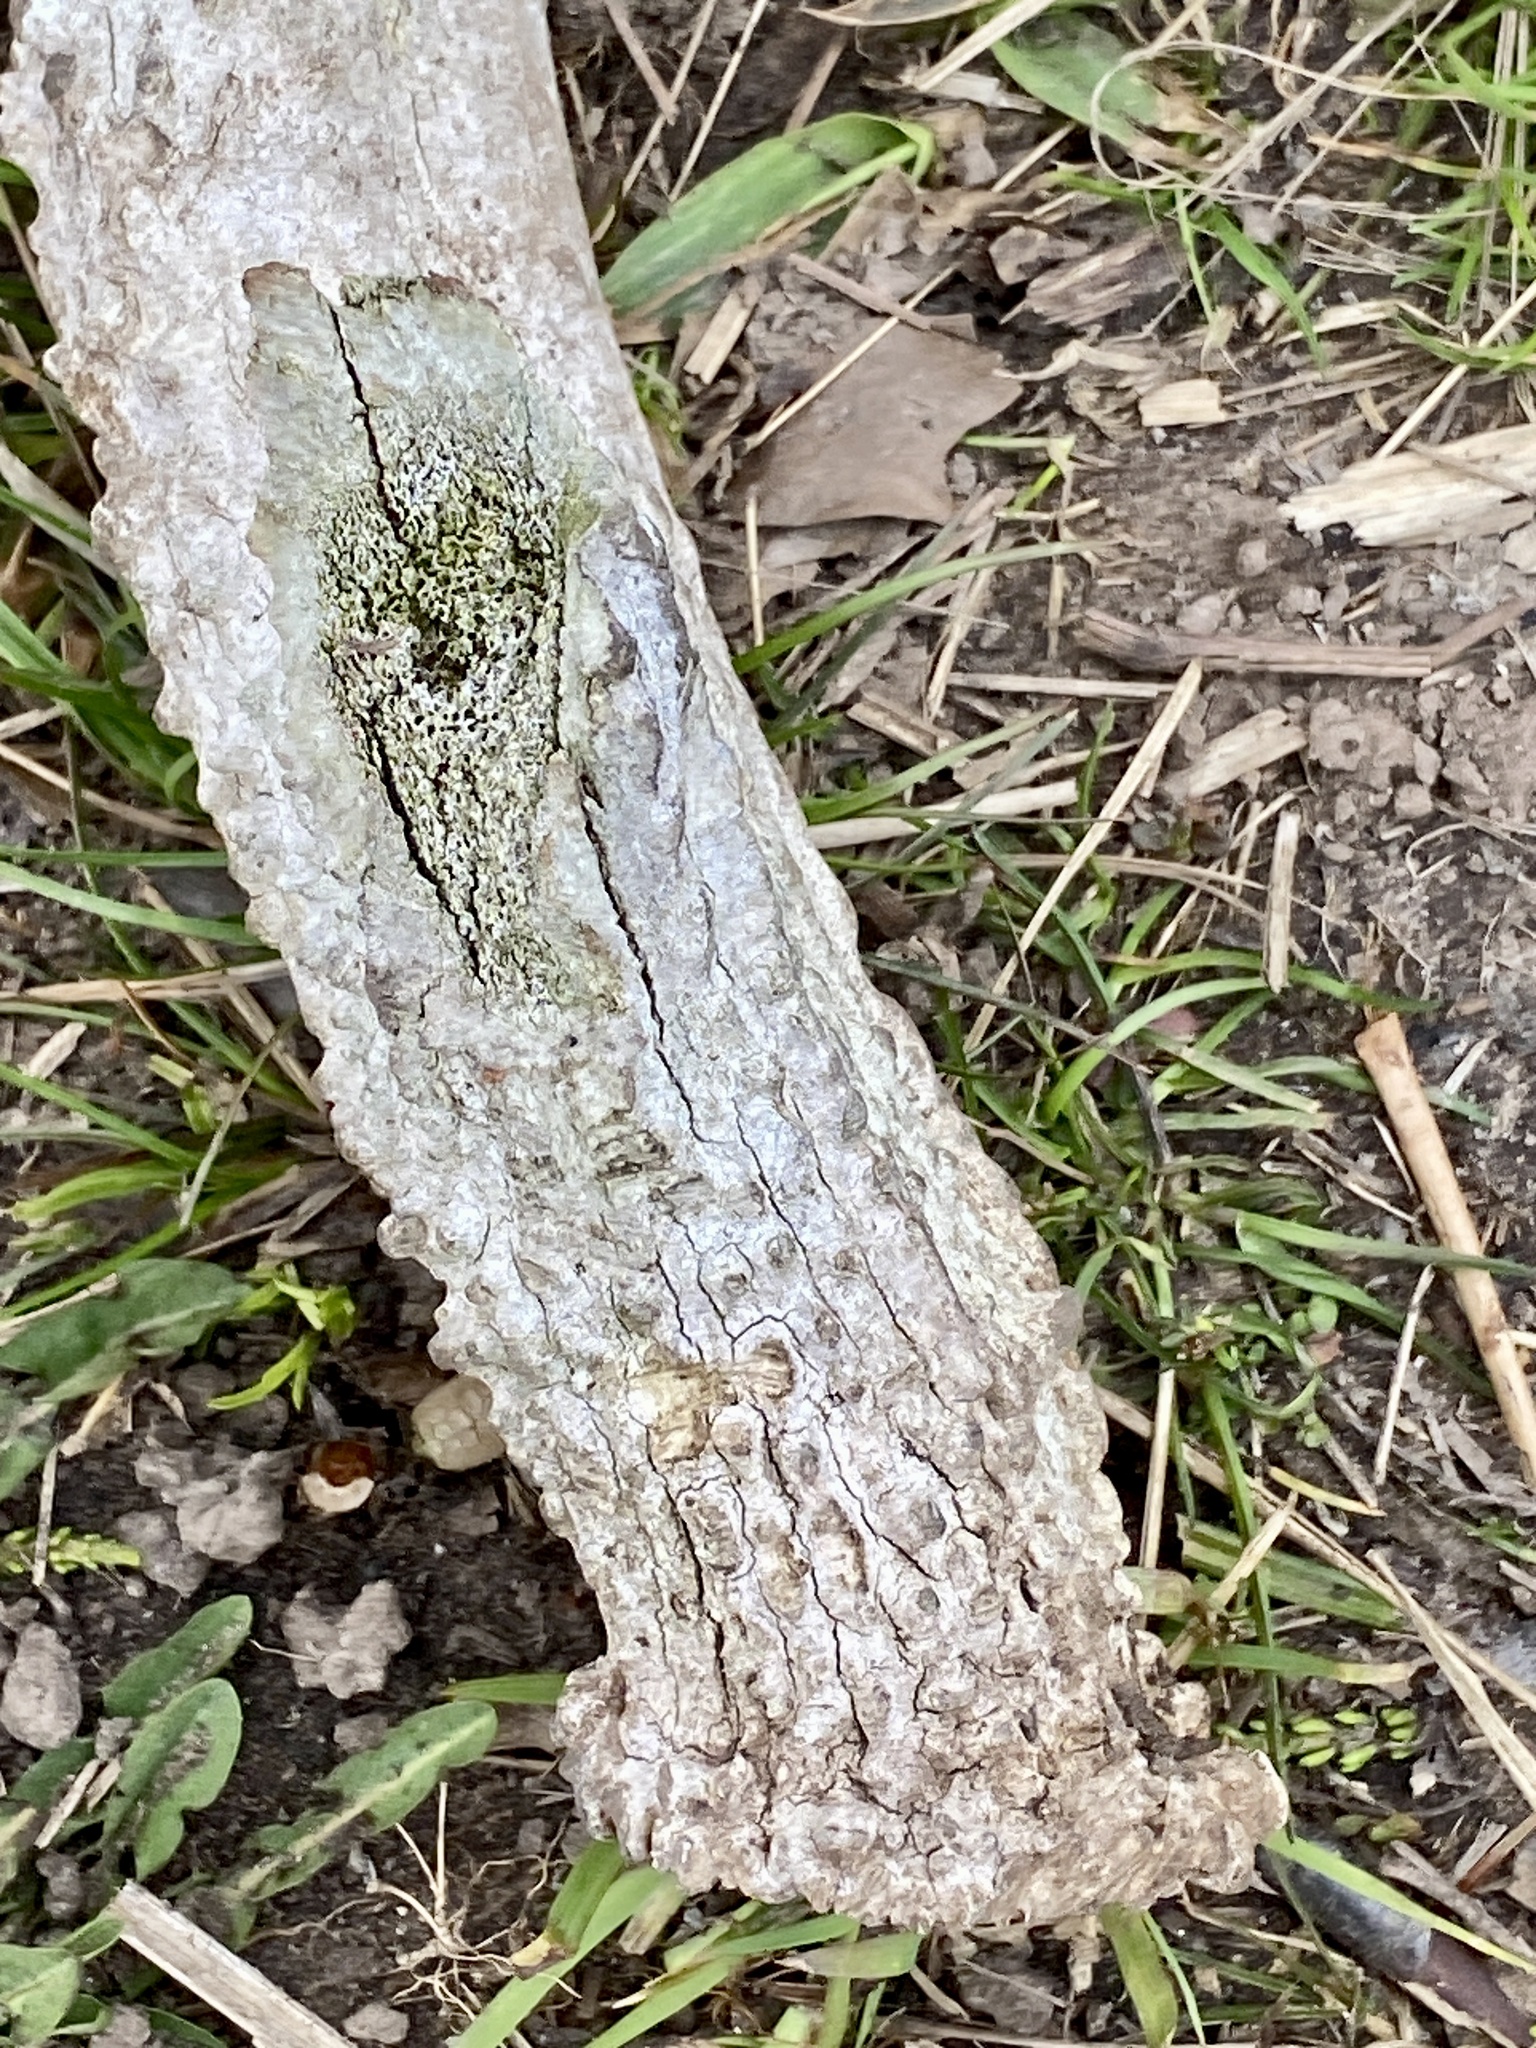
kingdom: Animalia
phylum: Chordata
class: Mammalia
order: Artiodactyla
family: Cervidae
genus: Odocoileus
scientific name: Odocoileus virginianus
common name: White-tailed deer
